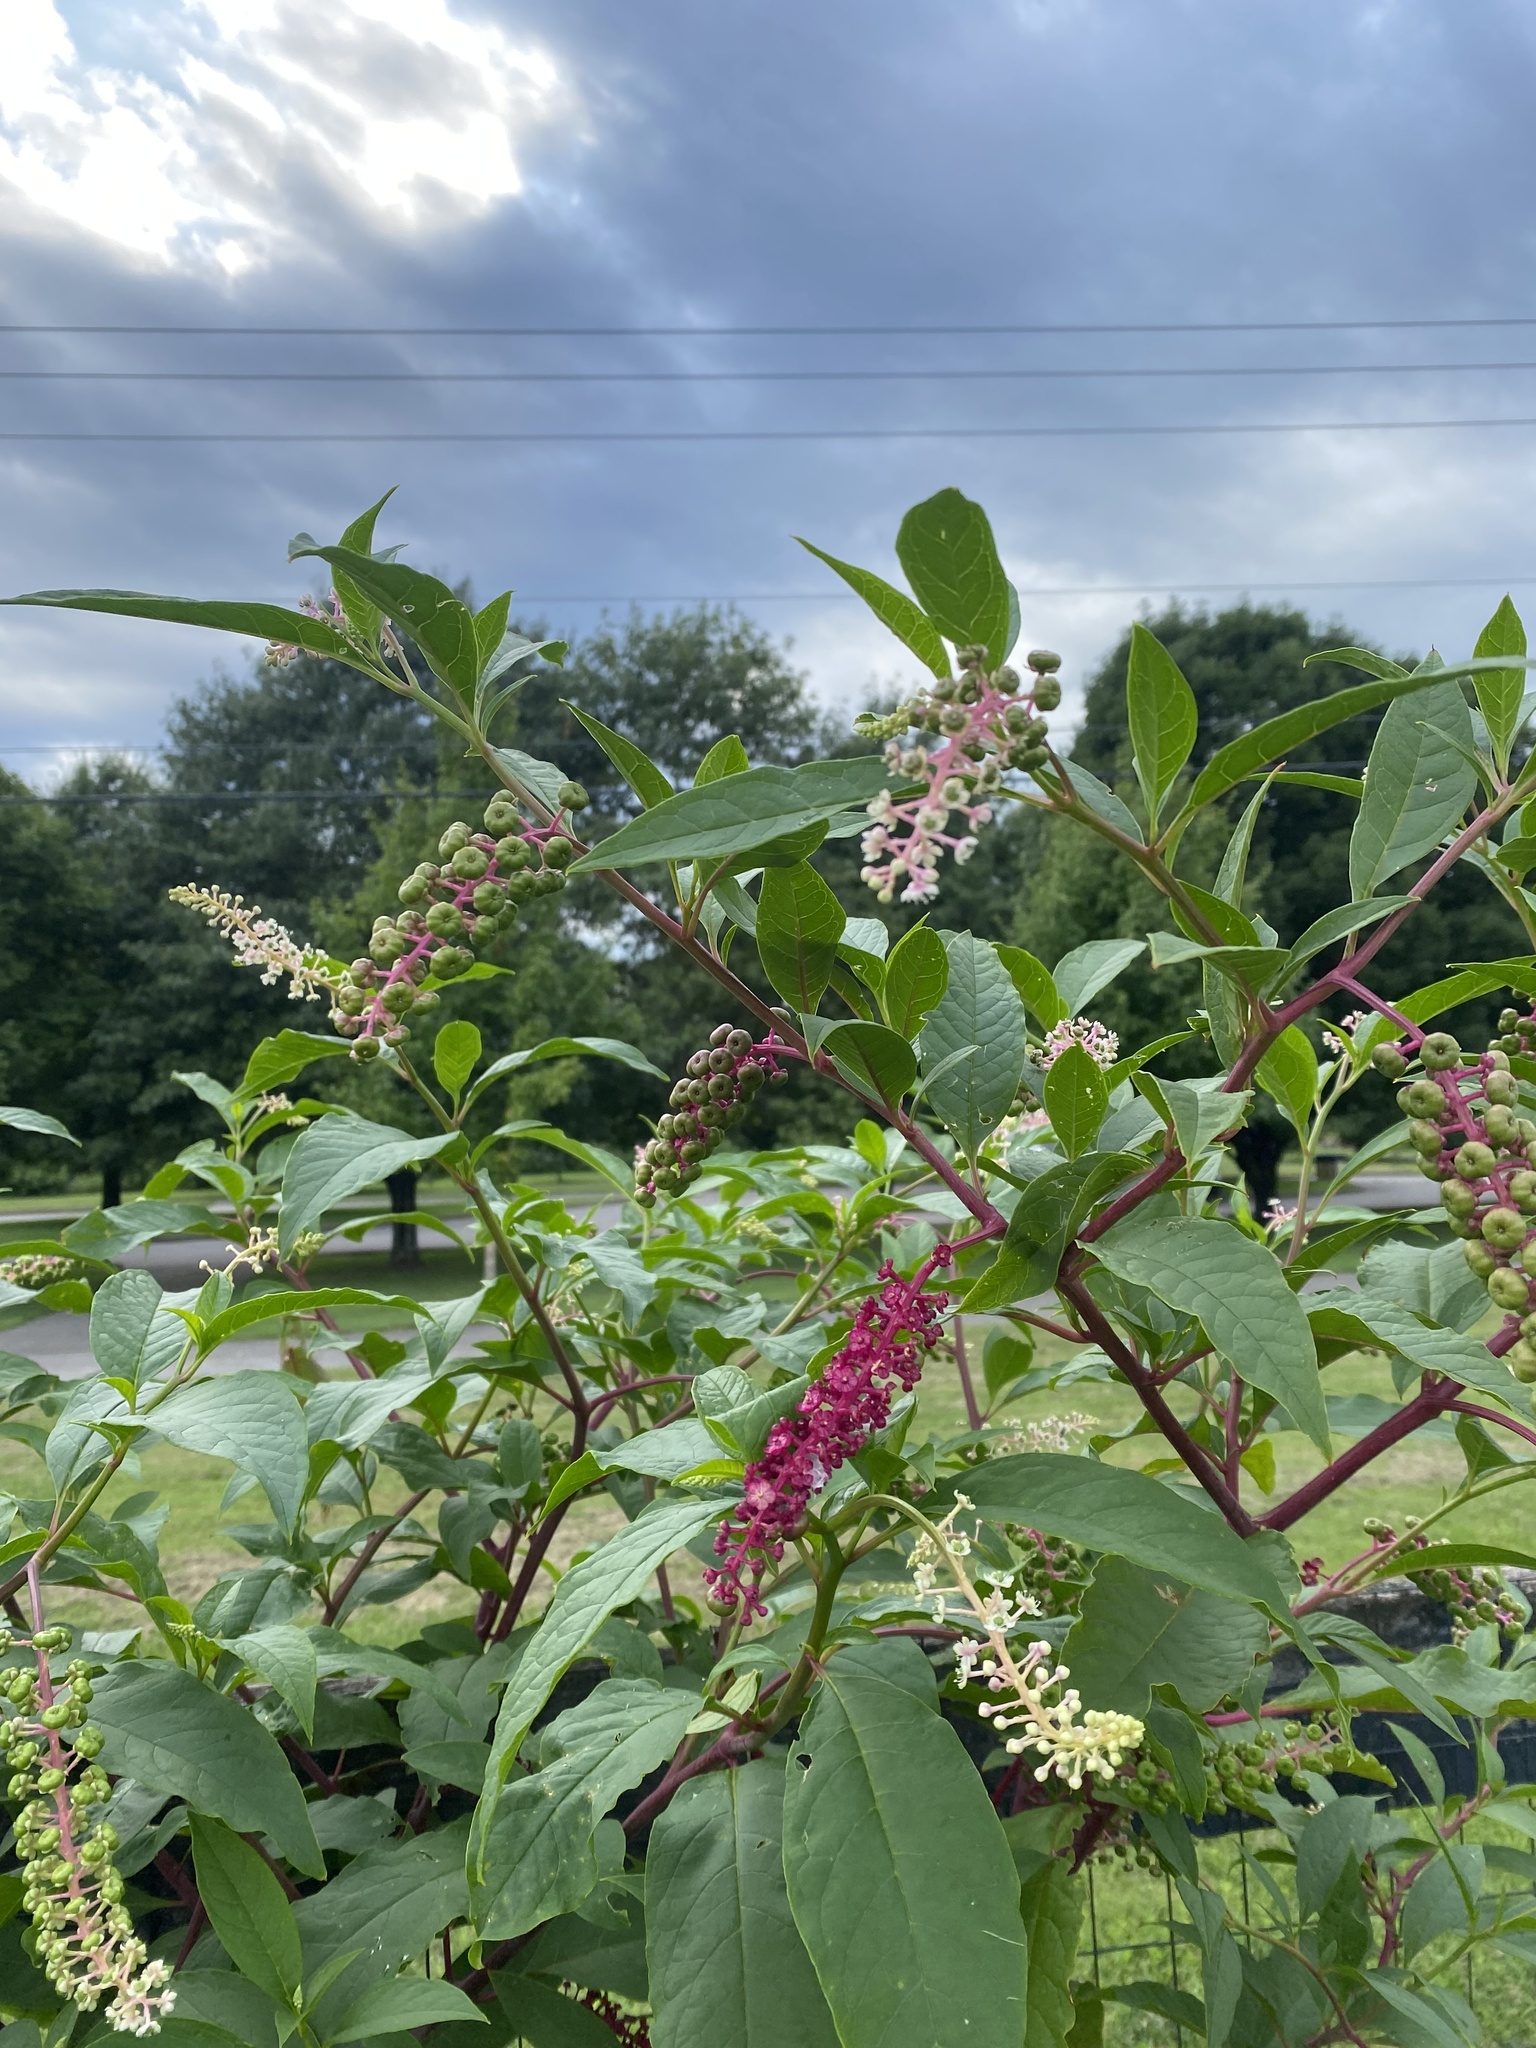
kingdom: Plantae
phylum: Tracheophyta
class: Magnoliopsida
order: Caryophyllales
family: Phytolaccaceae
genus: Phytolacca
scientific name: Phytolacca americana
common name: American pokeweed
